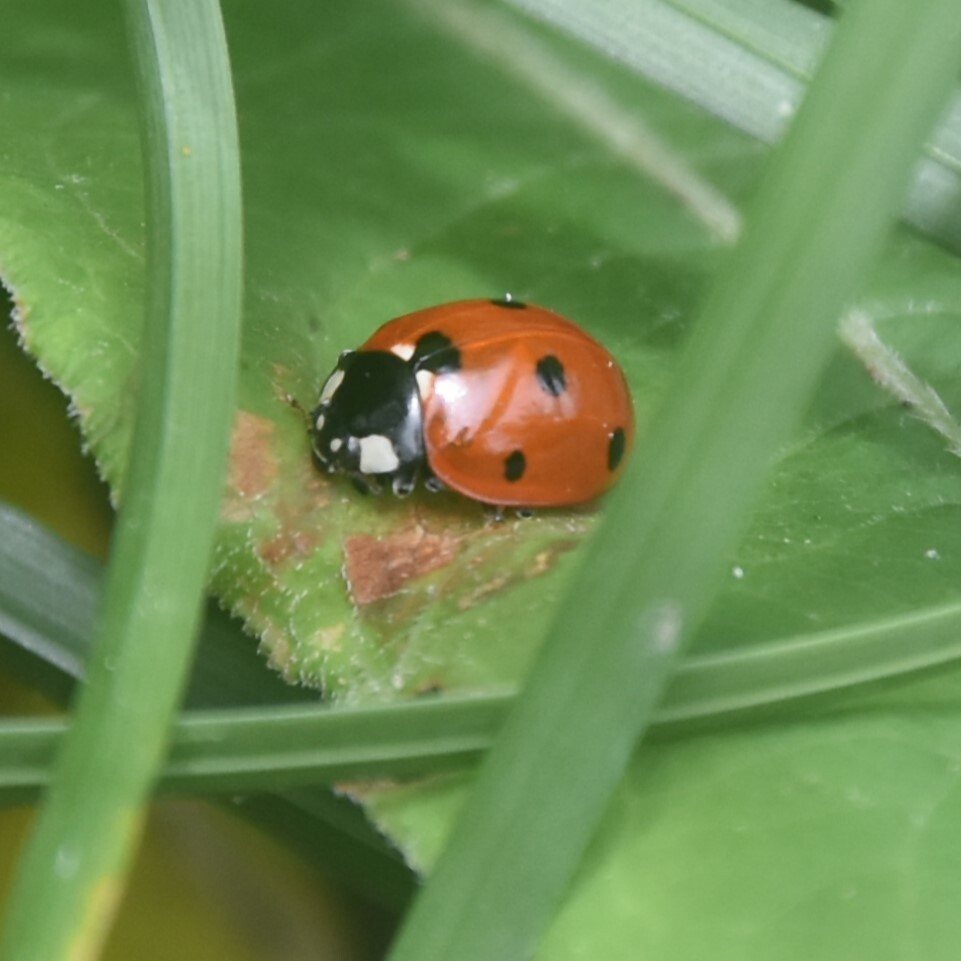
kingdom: Animalia
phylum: Arthropoda
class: Insecta
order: Coleoptera
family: Coccinellidae
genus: Coccinella
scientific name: Coccinella septempunctata
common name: Sevenspotted lady beetle
